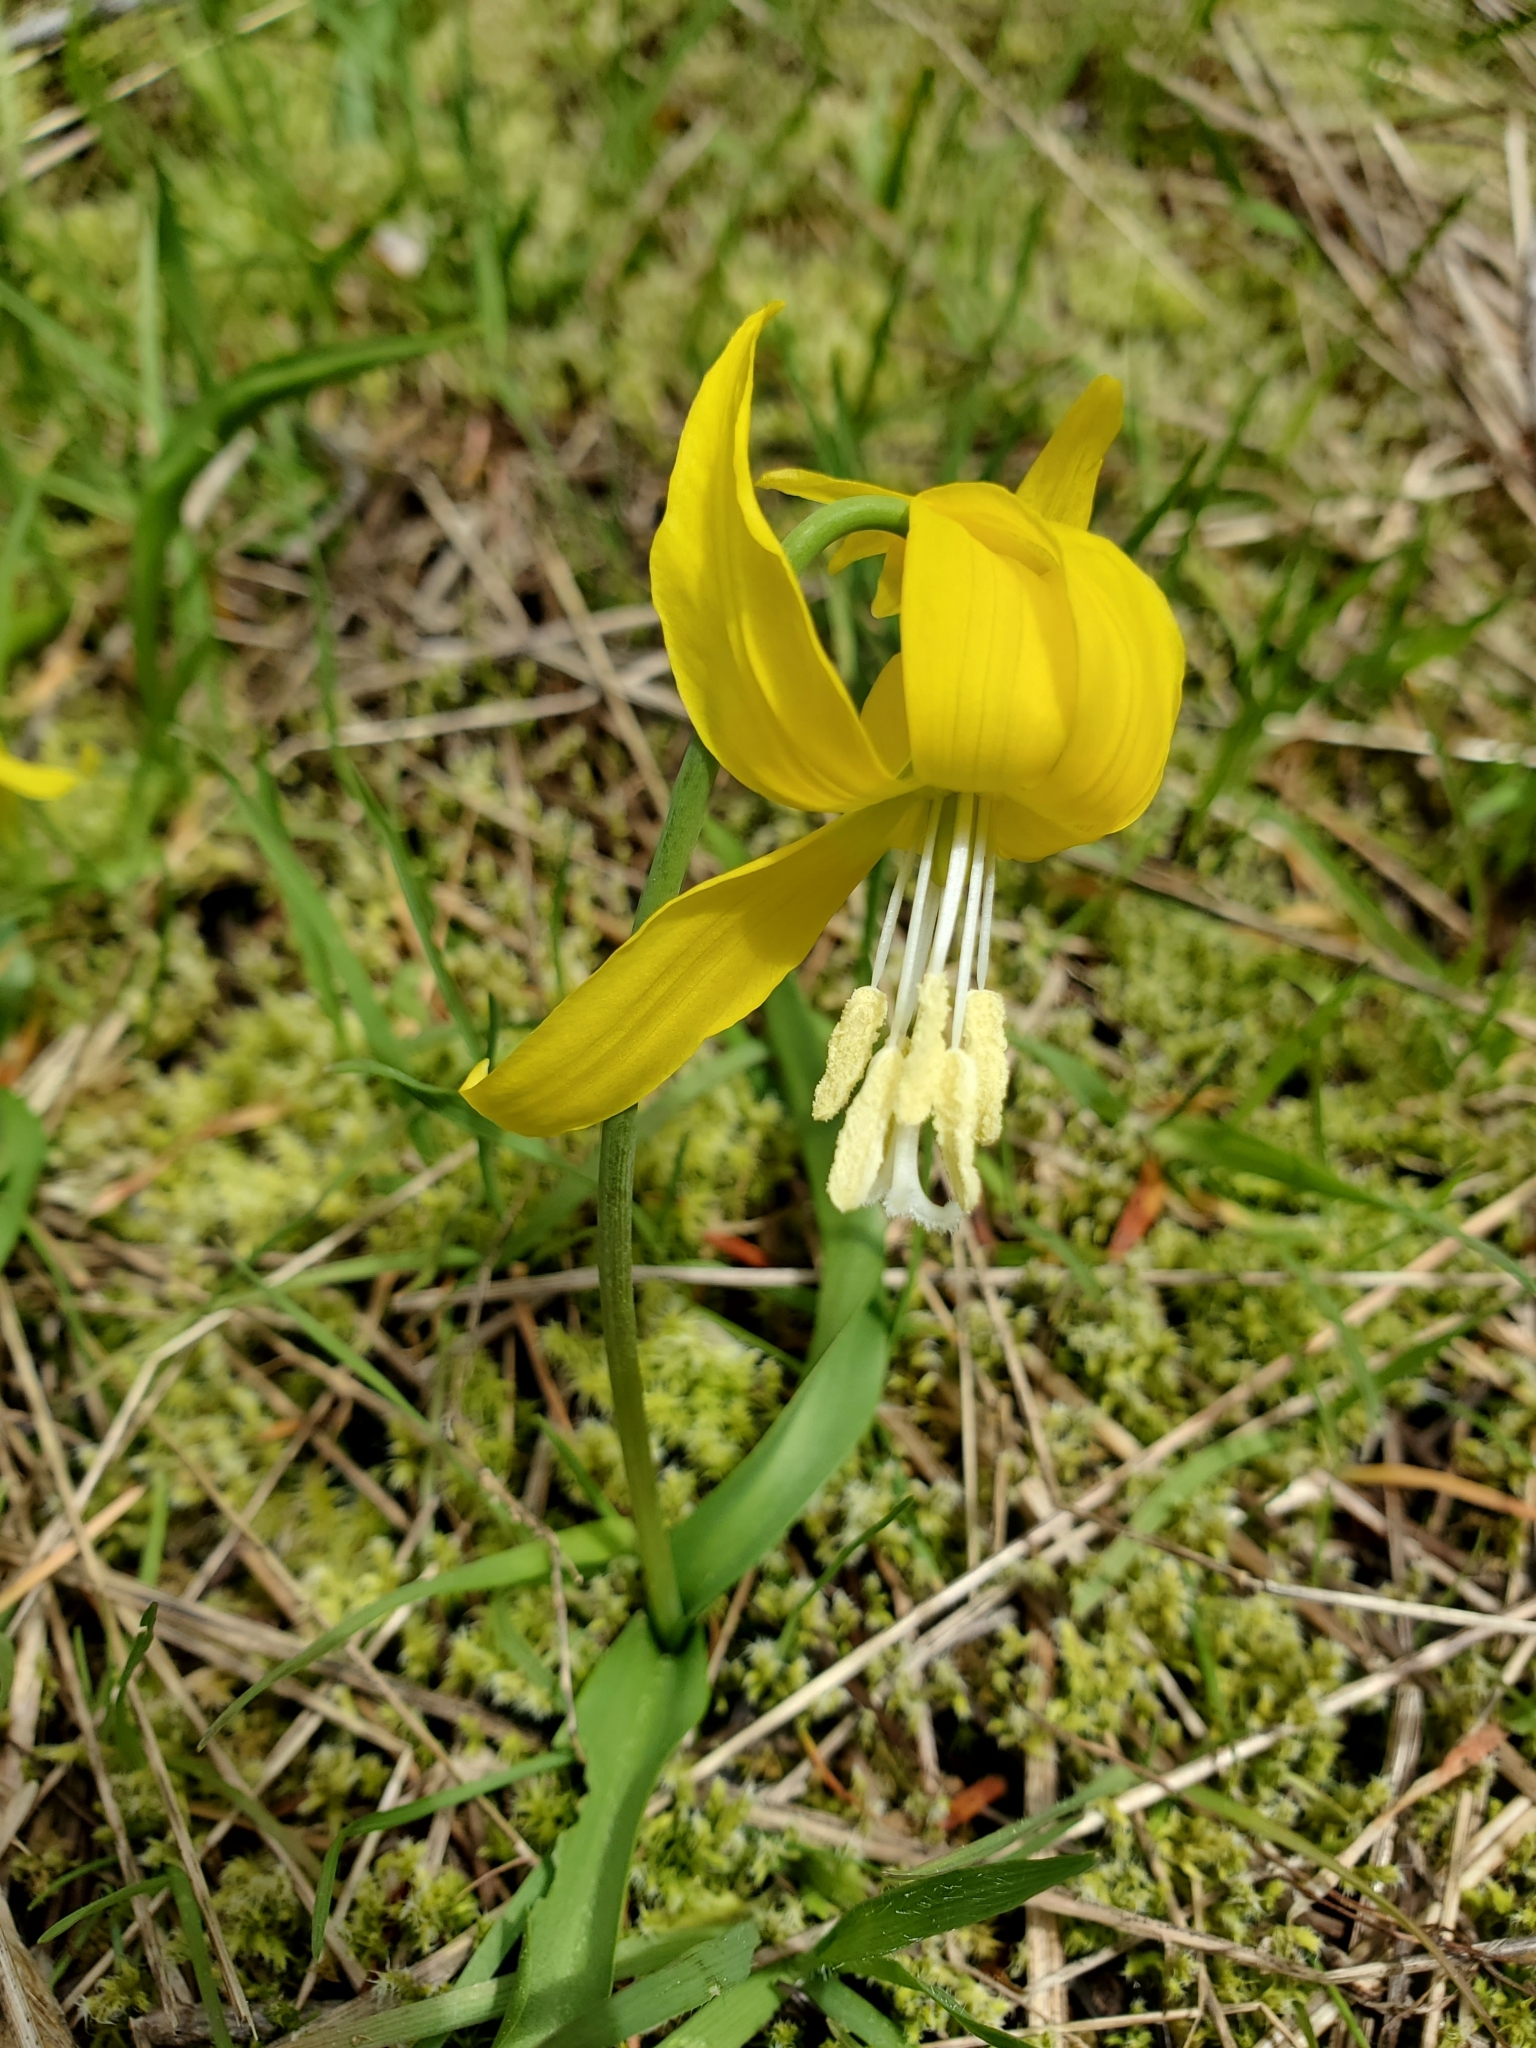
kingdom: Plantae
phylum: Tracheophyta
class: Liliopsida
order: Liliales
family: Liliaceae
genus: Erythronium
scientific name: Erythronium grandiflorum
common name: Avalanche-lily
